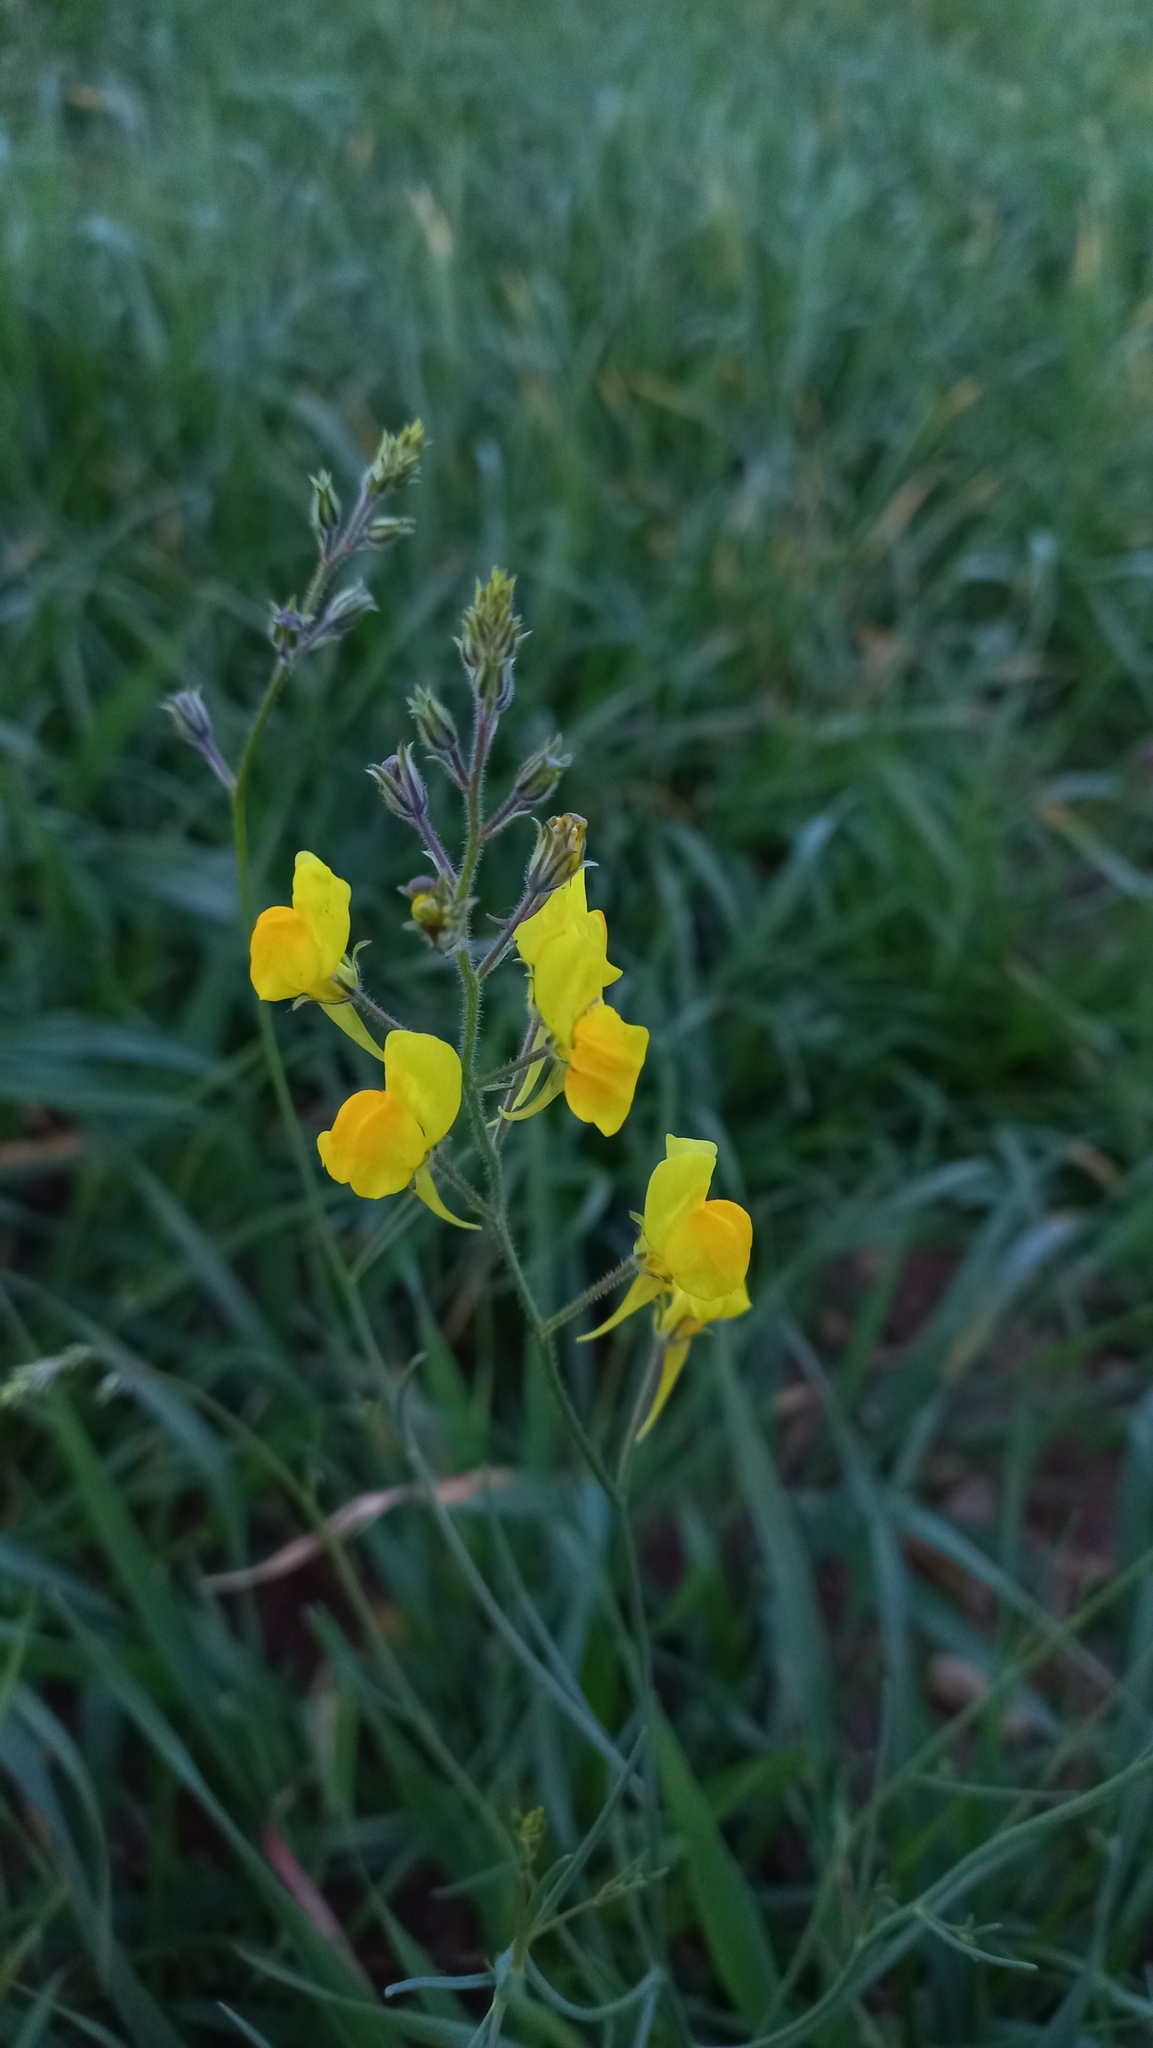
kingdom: Plantae
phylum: Tracheophyta
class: Magnoliopsida
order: Lamiales
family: Plantaginaceae
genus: Linaria
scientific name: Linaria spartea
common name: Ballast toadflax
